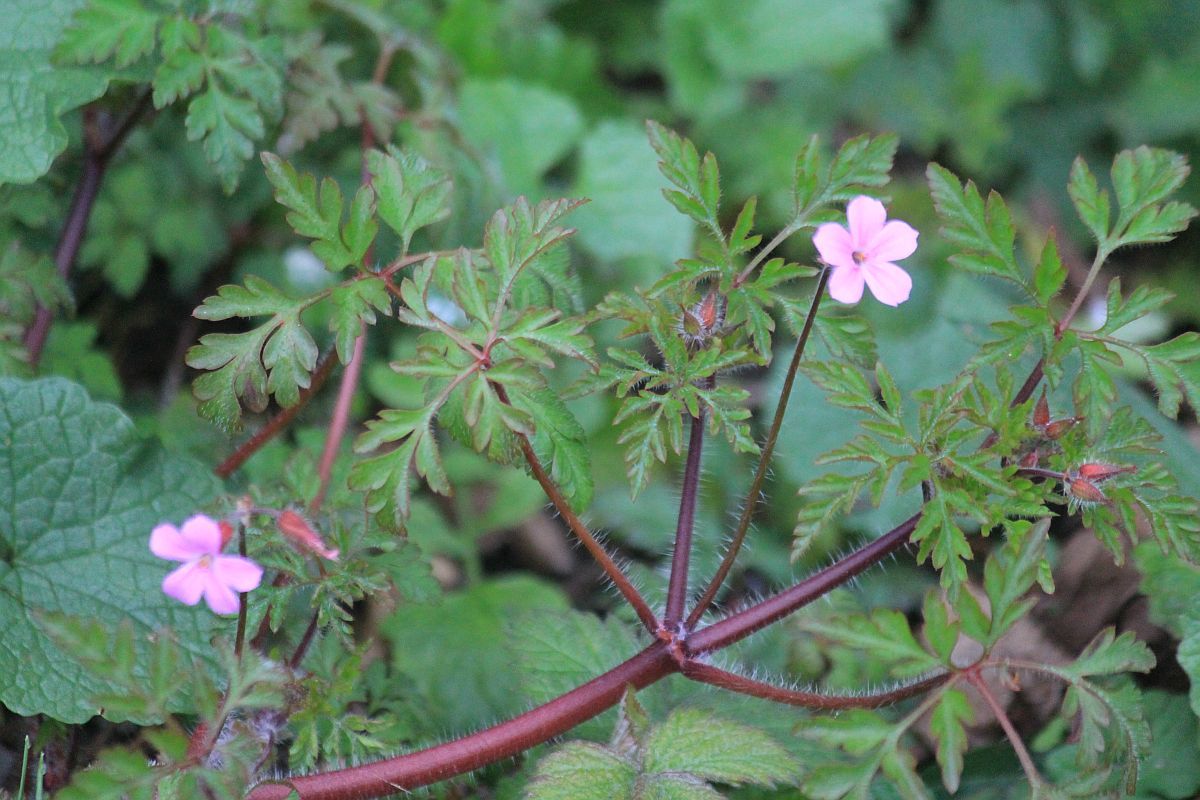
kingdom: Plantae
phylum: Tracheophyta
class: Magnoliopsida
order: Geraniales
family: Geraniaceae
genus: Geranium
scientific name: Geranium robertianum
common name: Herb-robert
